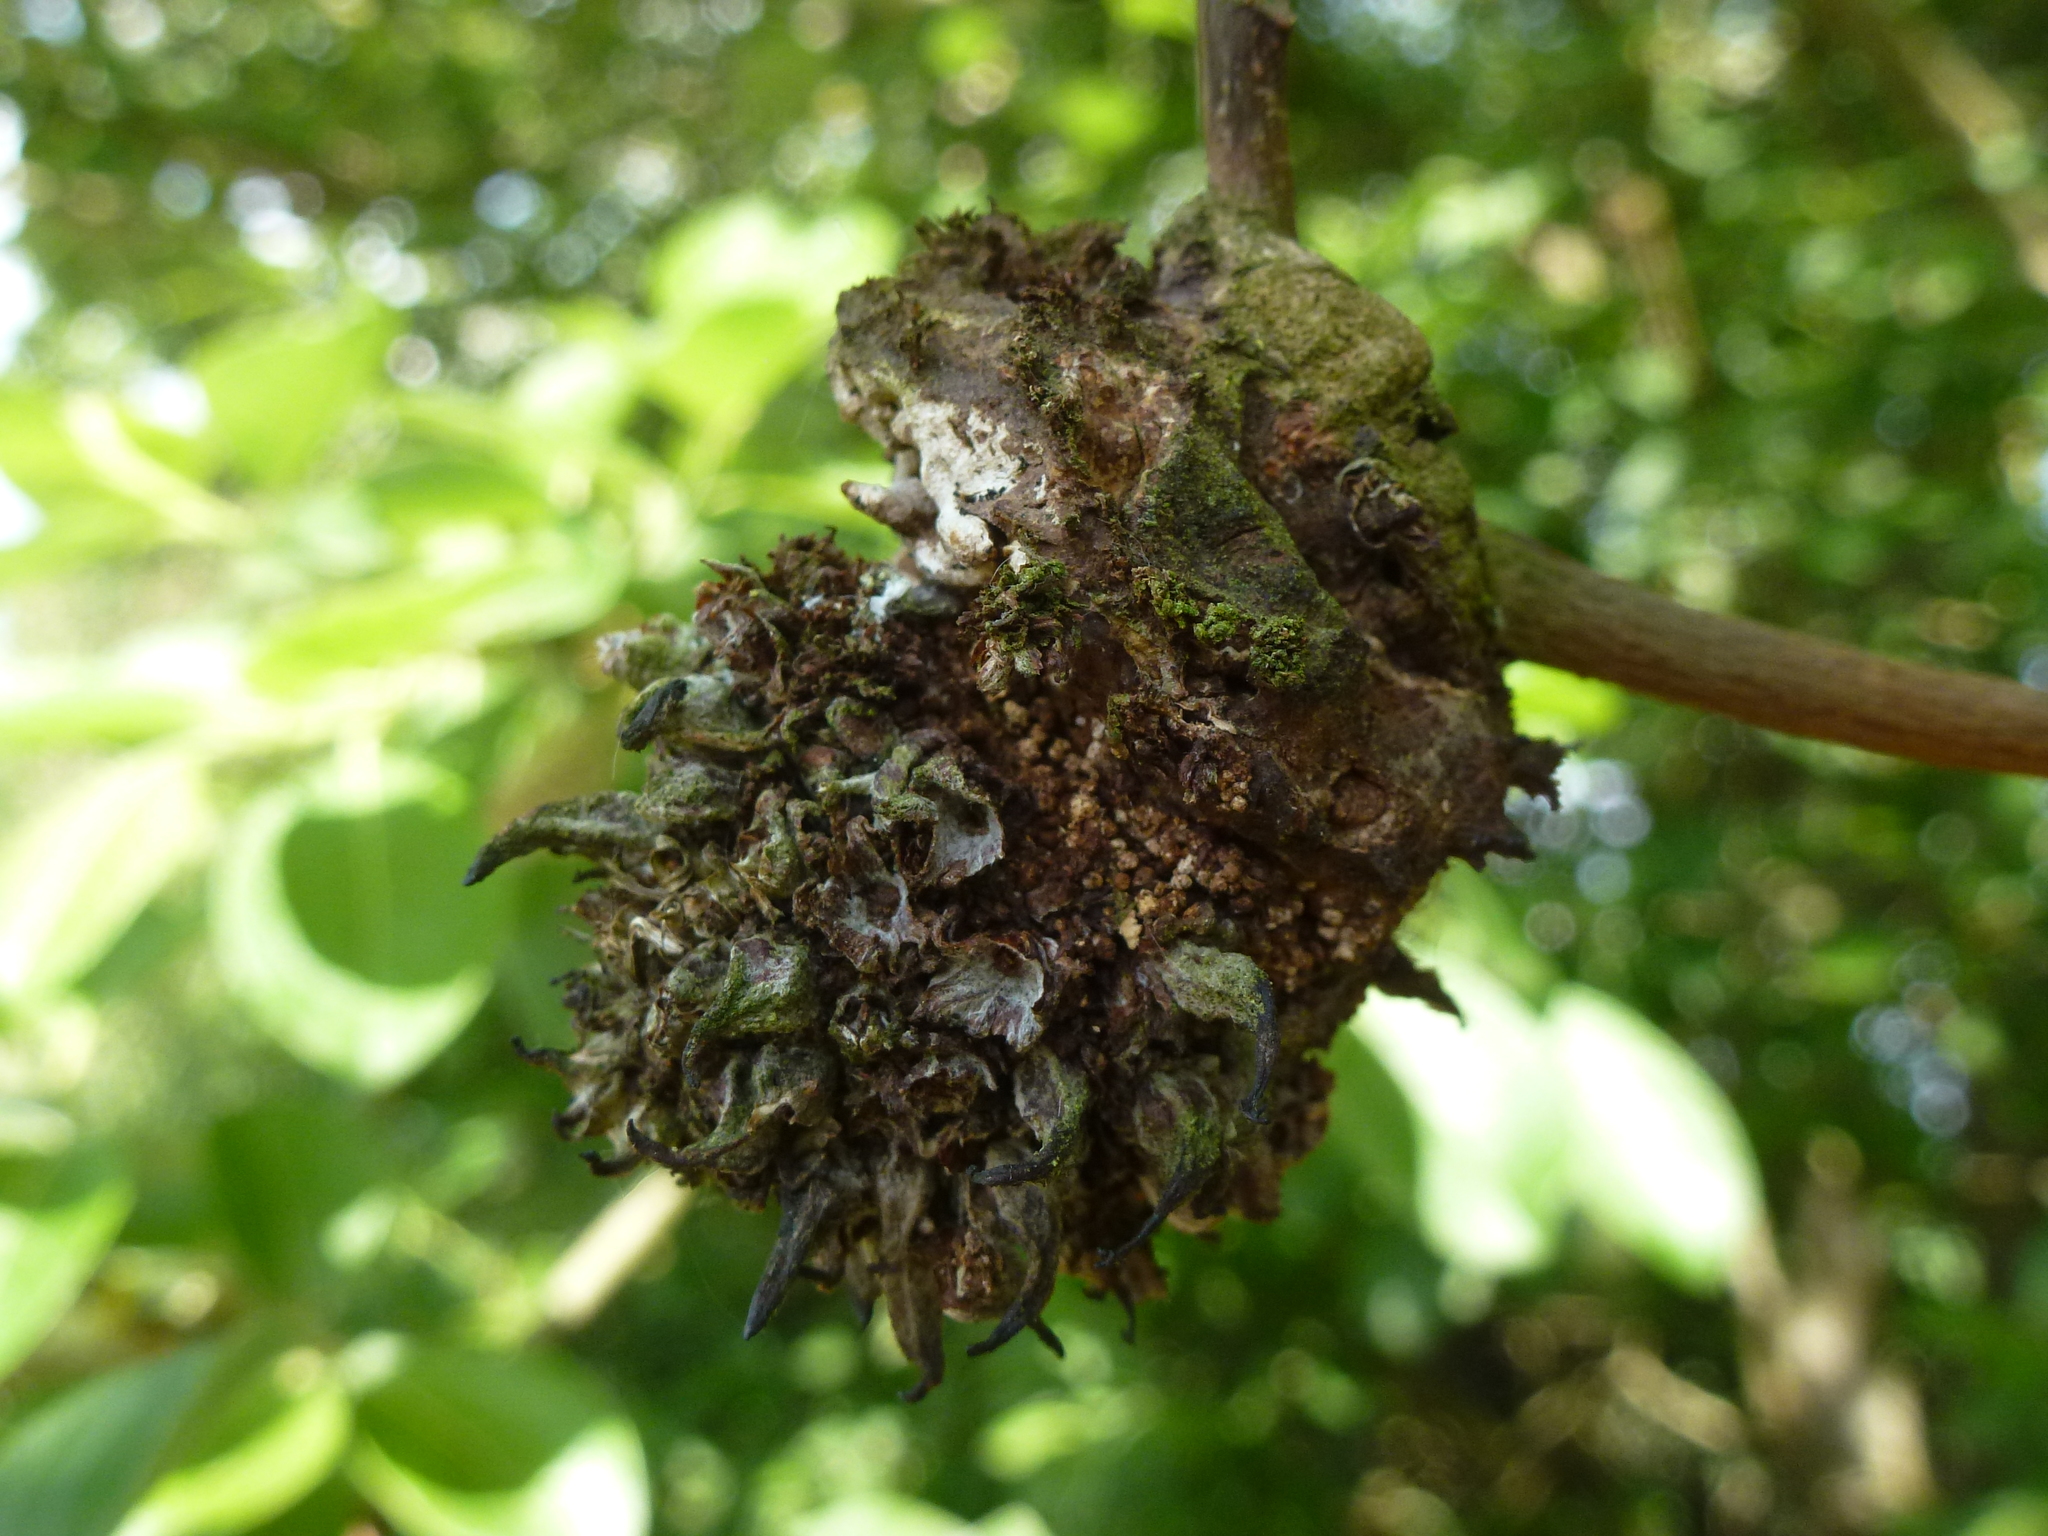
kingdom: Animalia
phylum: Arthropoda
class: Arachnida
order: Trombidiformes
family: Eriophyidae
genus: Stenacis
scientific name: Stenacis triradiatus
